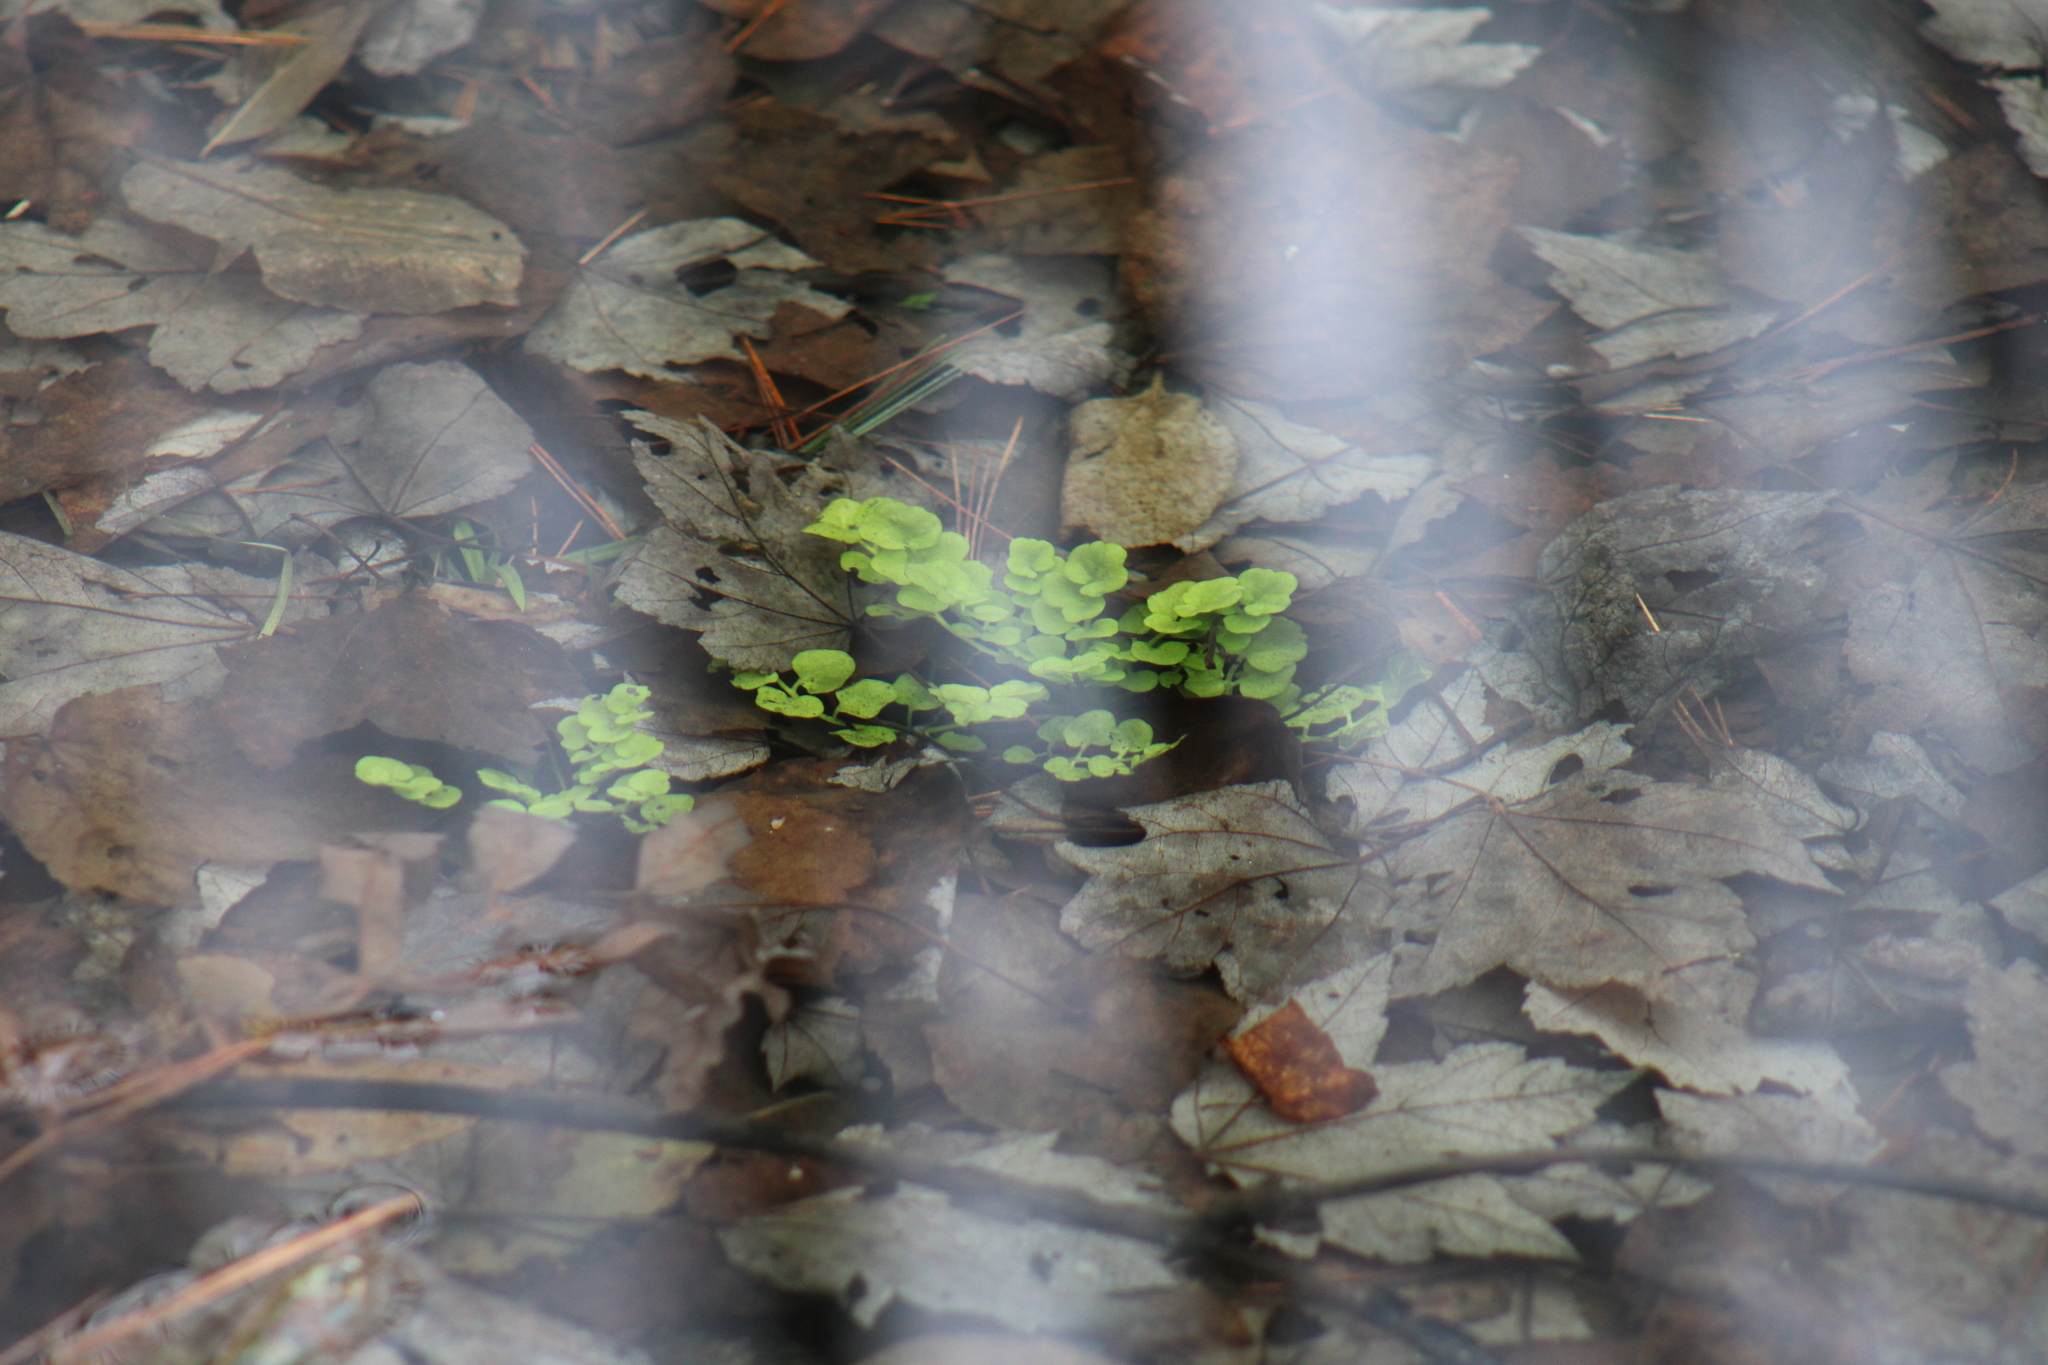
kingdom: Plantae
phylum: Tracheophyta
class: Magnoliopsida
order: Brassicales
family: Brassicaceae
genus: Nasturtium
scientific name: Nasturtium officinale
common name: Watercress
